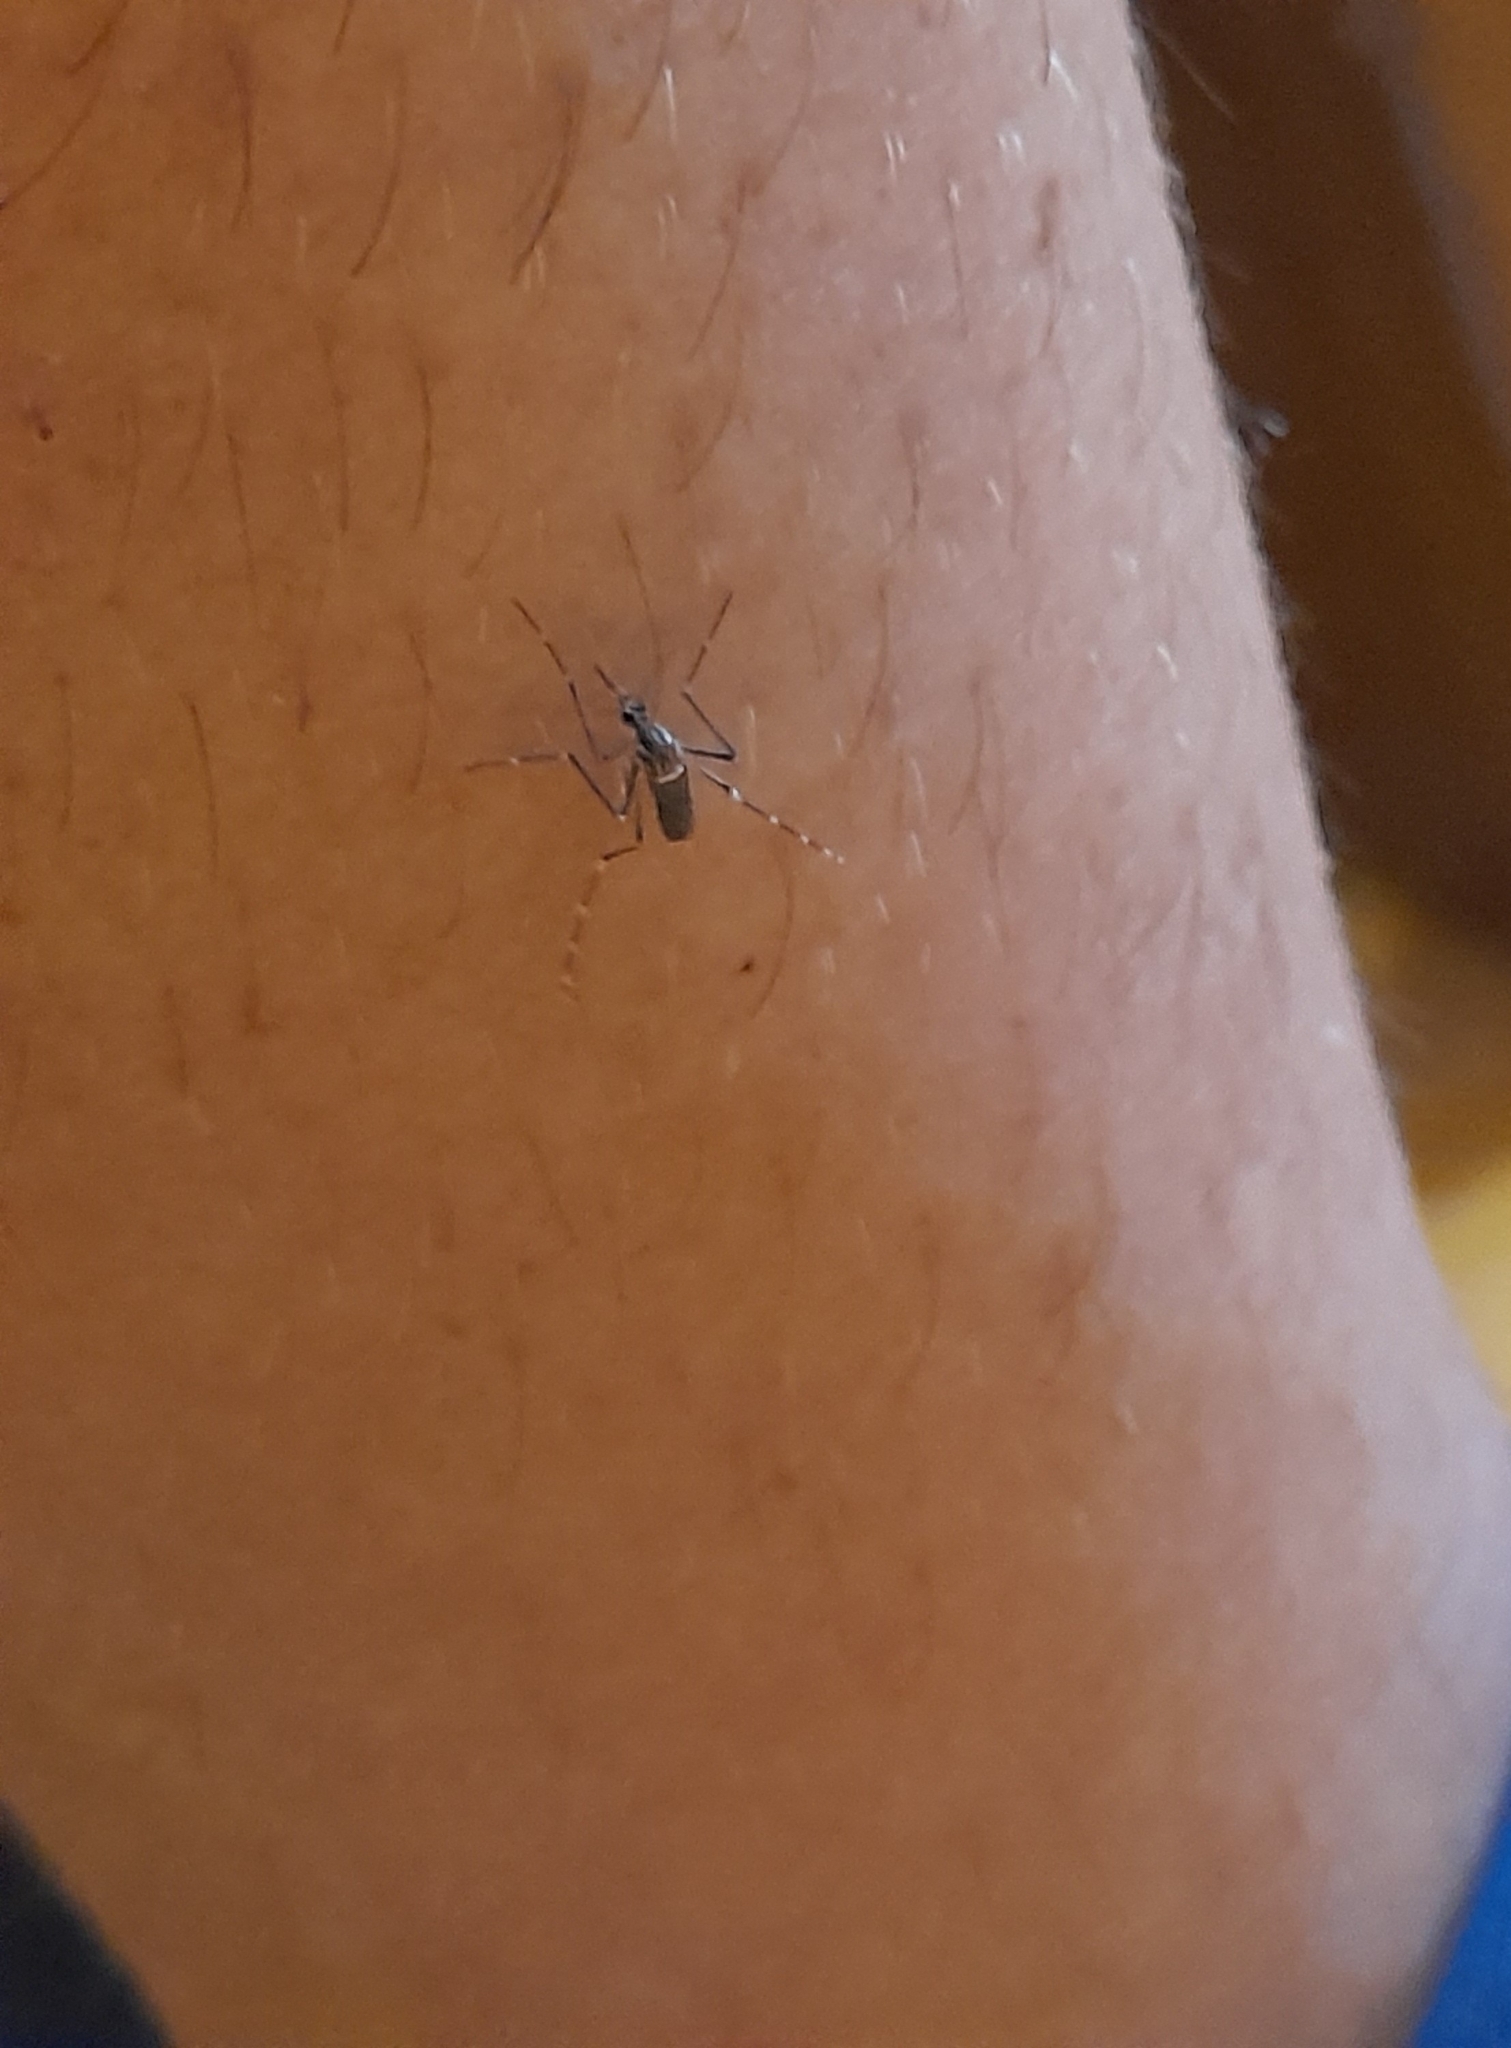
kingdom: Animalia
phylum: Arthropoda
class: Insecta
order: Diptera
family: Culicidae
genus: Aedes
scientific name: Aedes aegypti
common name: Yellow fever mosquito
